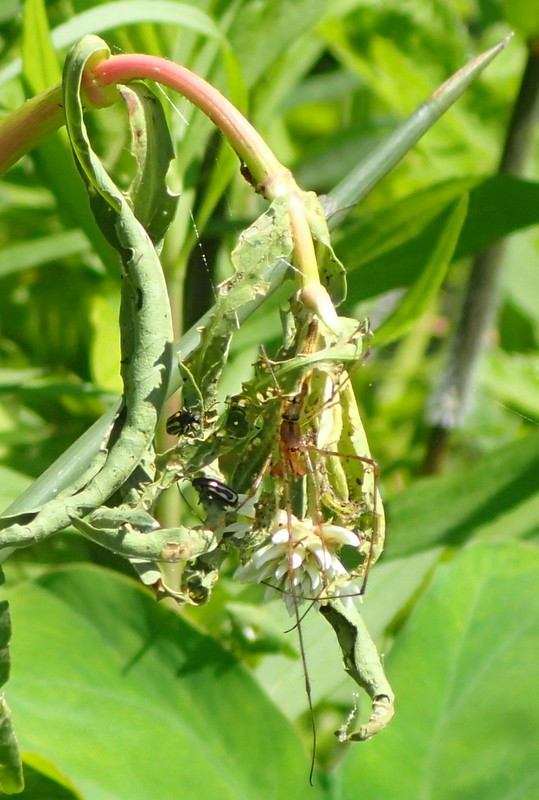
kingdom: Animalia
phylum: Arthropoda
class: Insecta
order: Coleoptera
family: Chrysomelidae
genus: Agasicles
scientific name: Agasicles hygrophila
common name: Alligatorweed flea beetle
